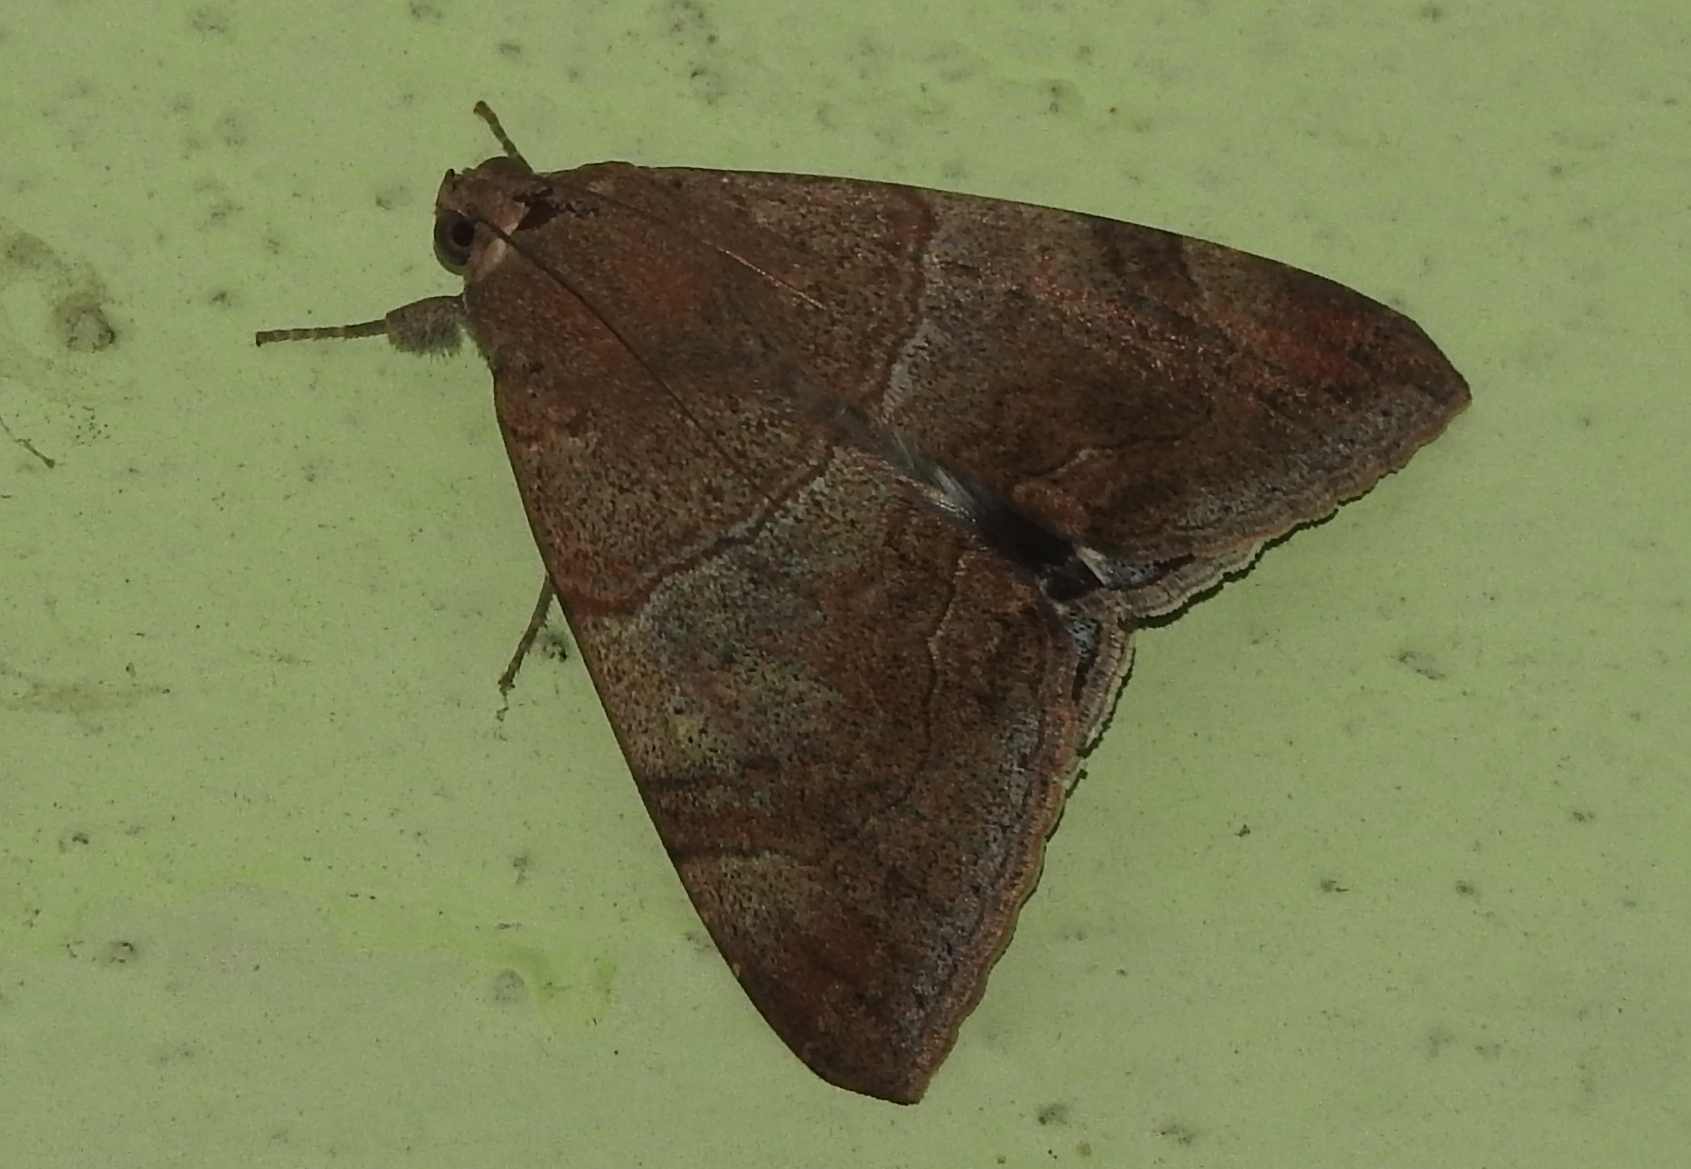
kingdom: Animalia
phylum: Arthropoda
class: Insecta
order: Lepidoptera
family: Erebidae
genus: Achaea
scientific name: Achaea janata
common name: Croton caterpillar
